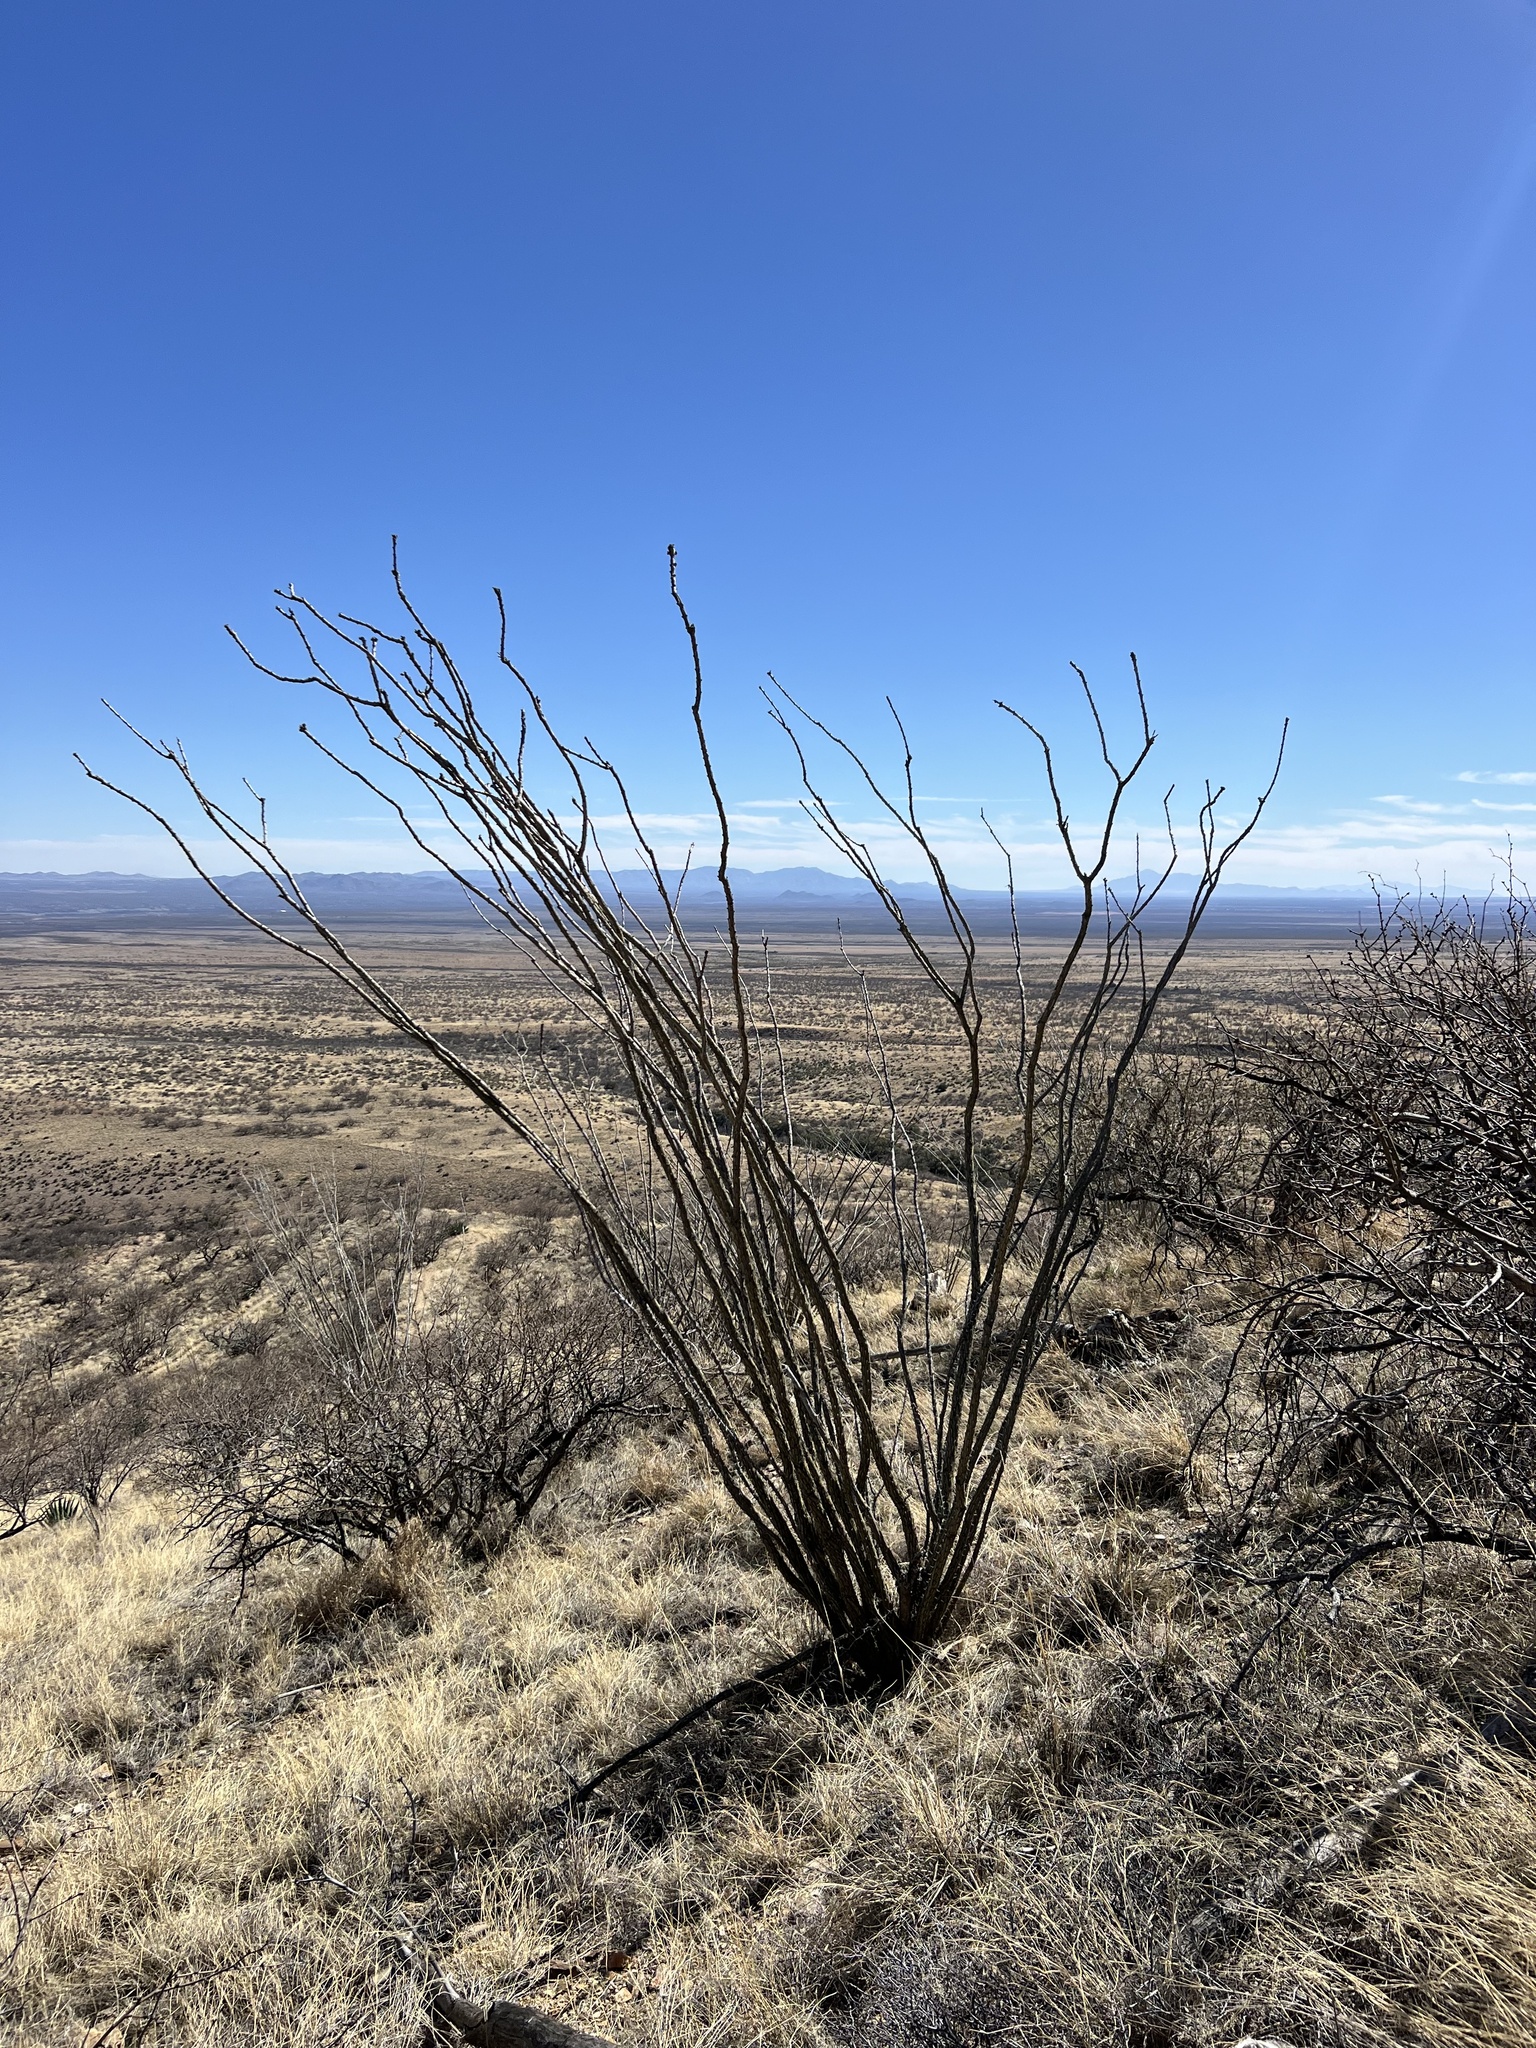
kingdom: Plantae
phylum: Tracheophyta
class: Magnoliopsida
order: Ericales
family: Fouquieriaceae
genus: Fouquieria
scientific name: Fouquieria splendens
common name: Vine-cactus
